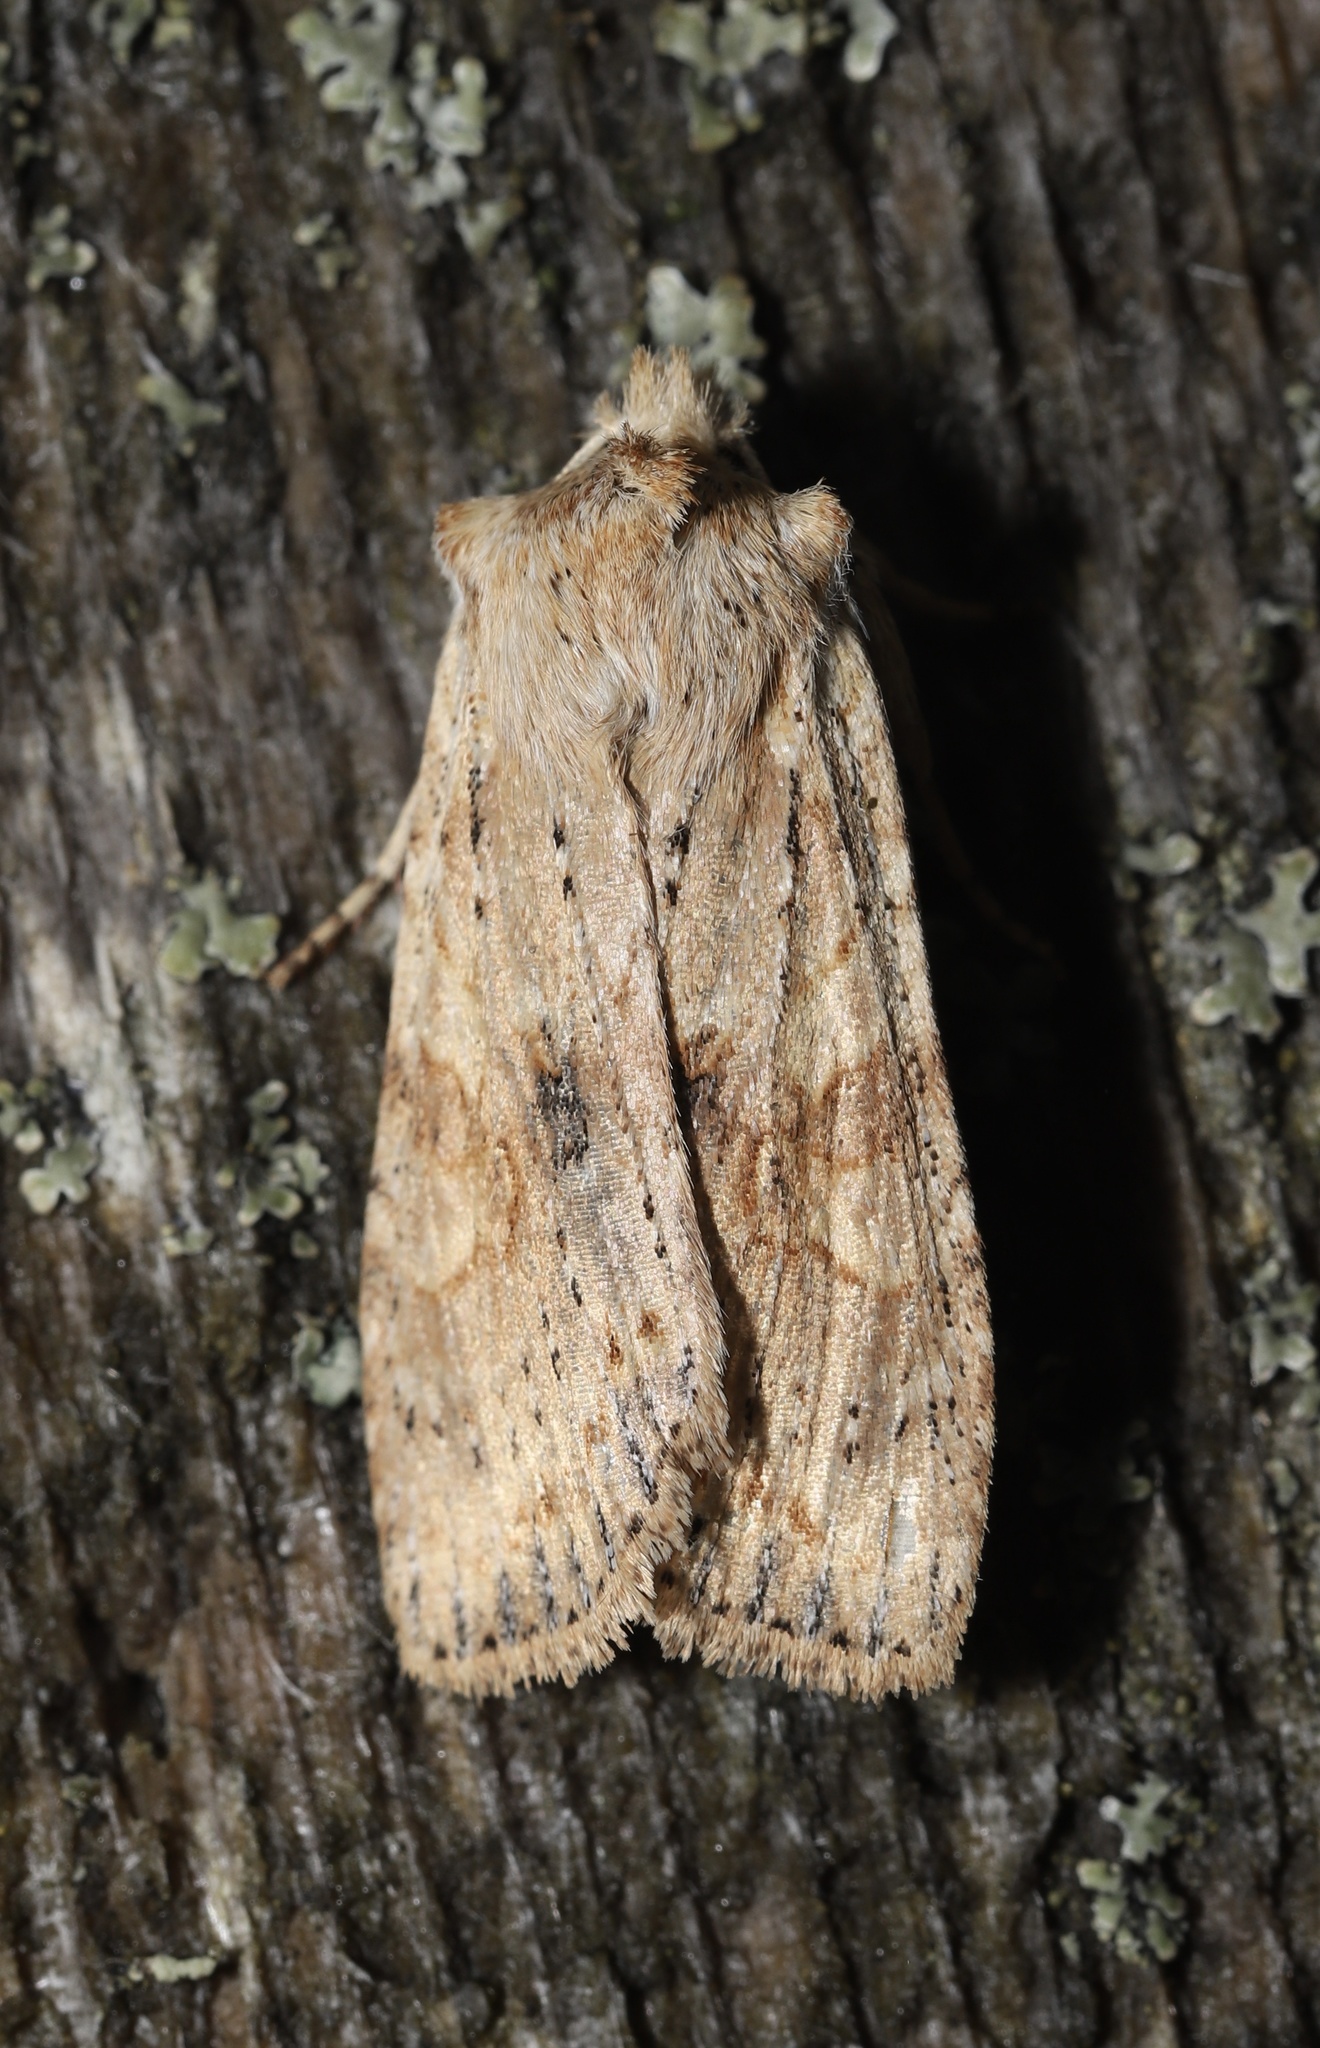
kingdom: Animalia
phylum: Arthropoda
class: Insecta
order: Lepidoptera
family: Noctuidae
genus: Lithophane
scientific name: Lithophane innominata
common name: Nameless pinion moth
